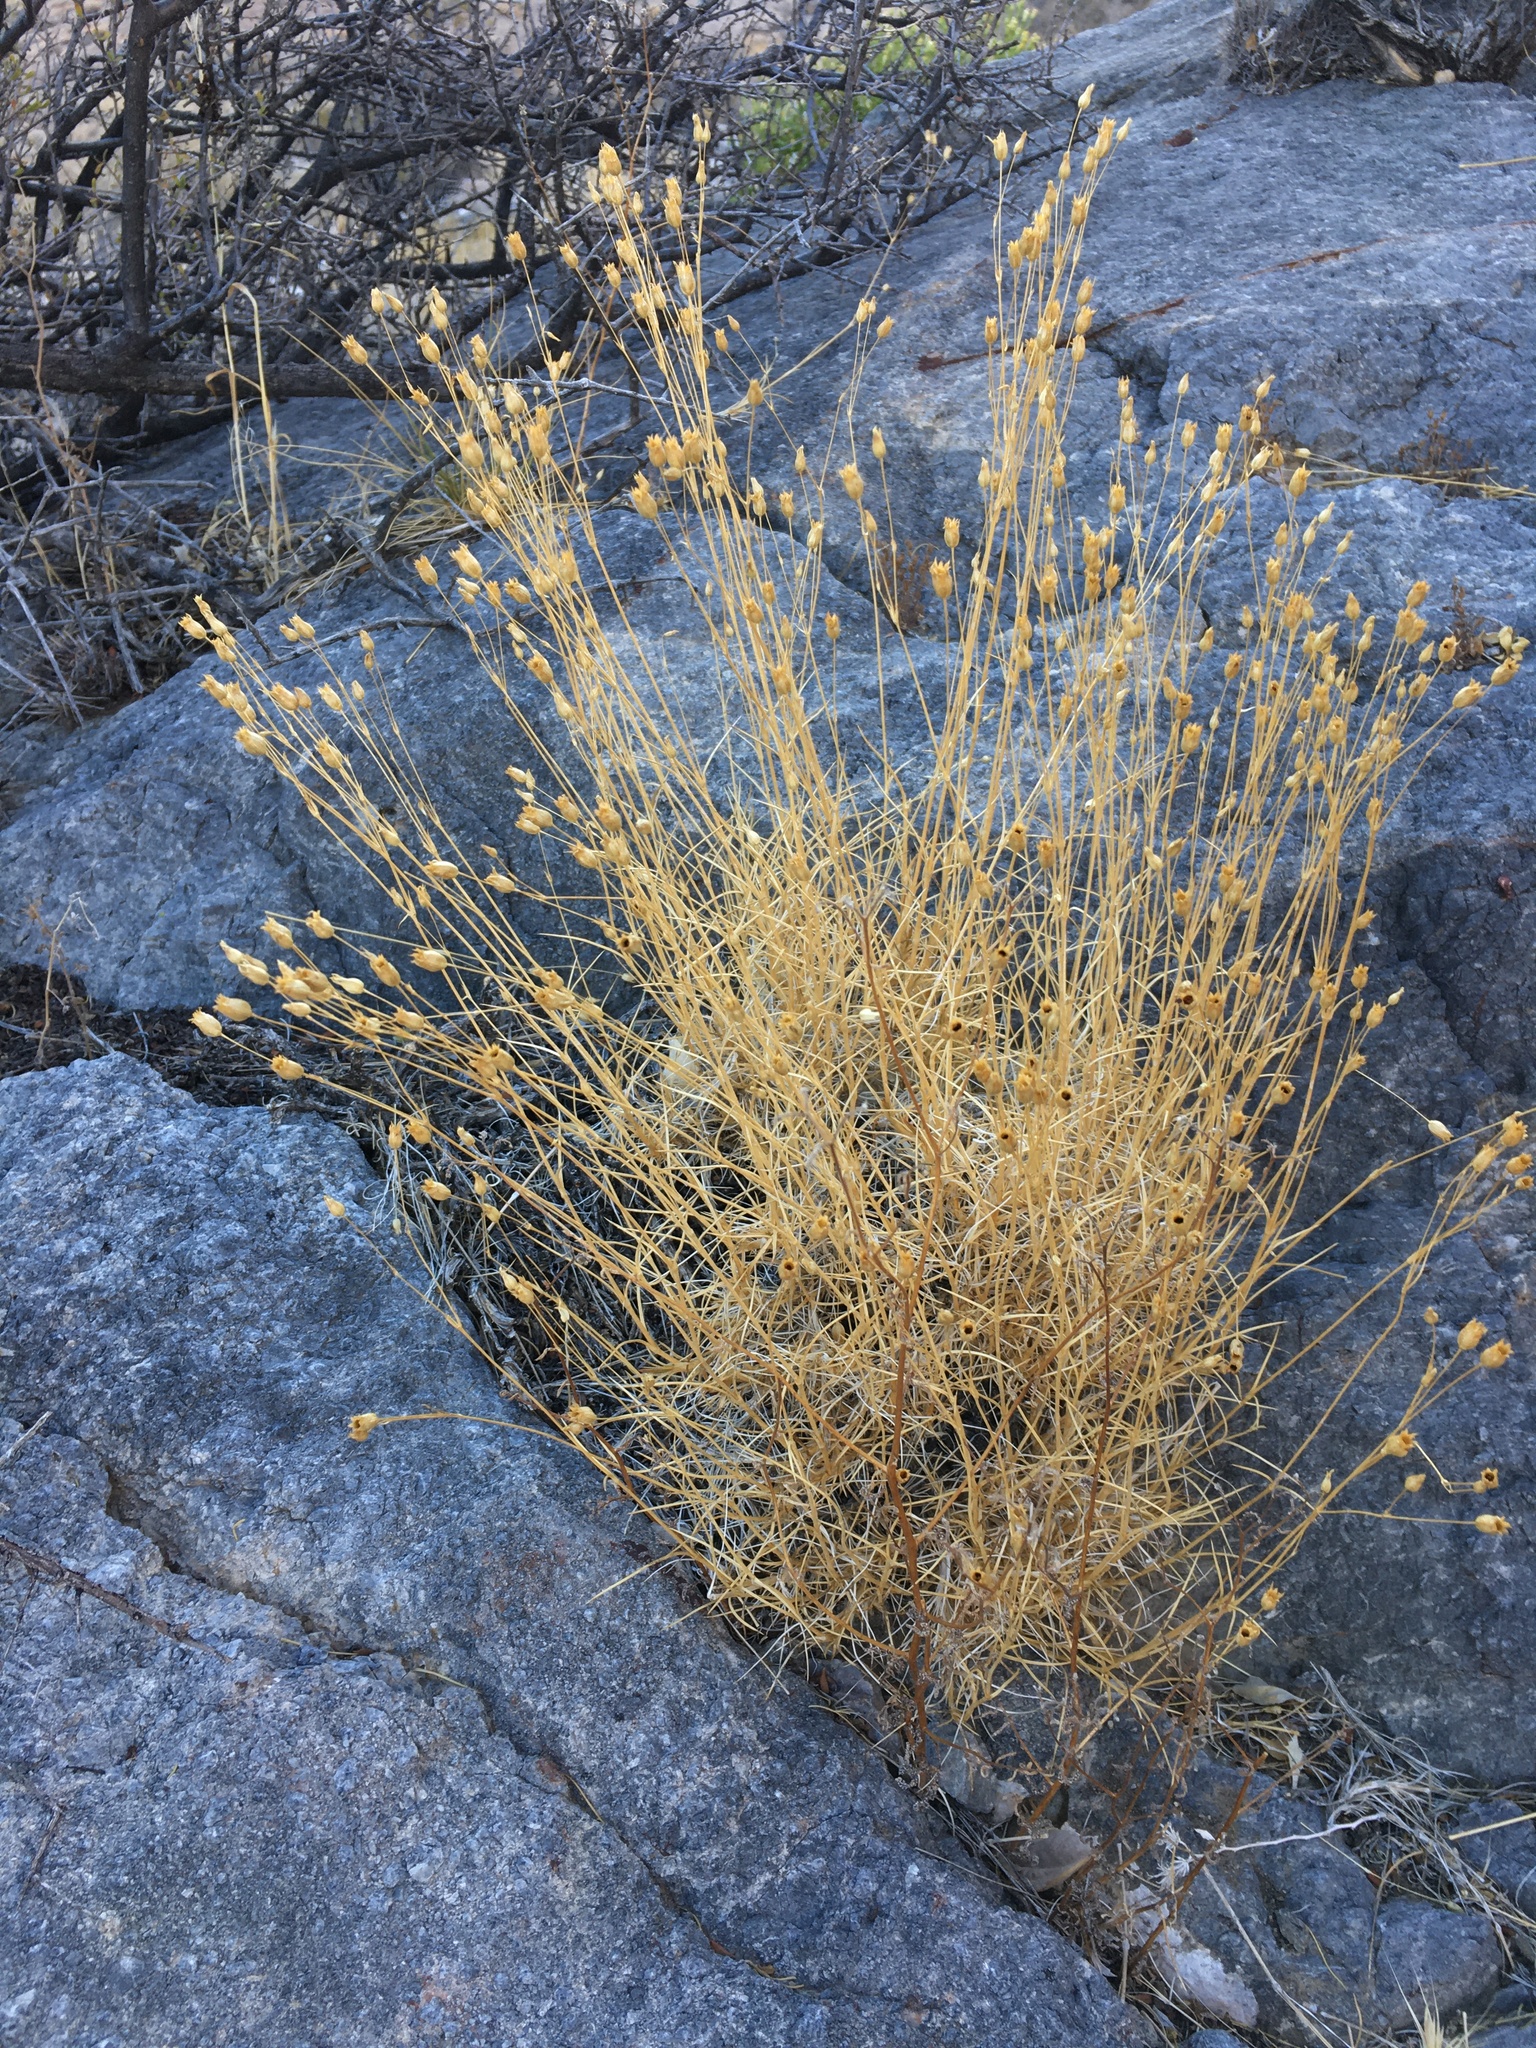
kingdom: Plantae
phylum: Tracheophyta
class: Magnoliopsida
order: Caryophyllales
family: Caryophyllaceae
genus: Eremogone
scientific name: Eremogone macradenia
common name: Mohave sandwort
